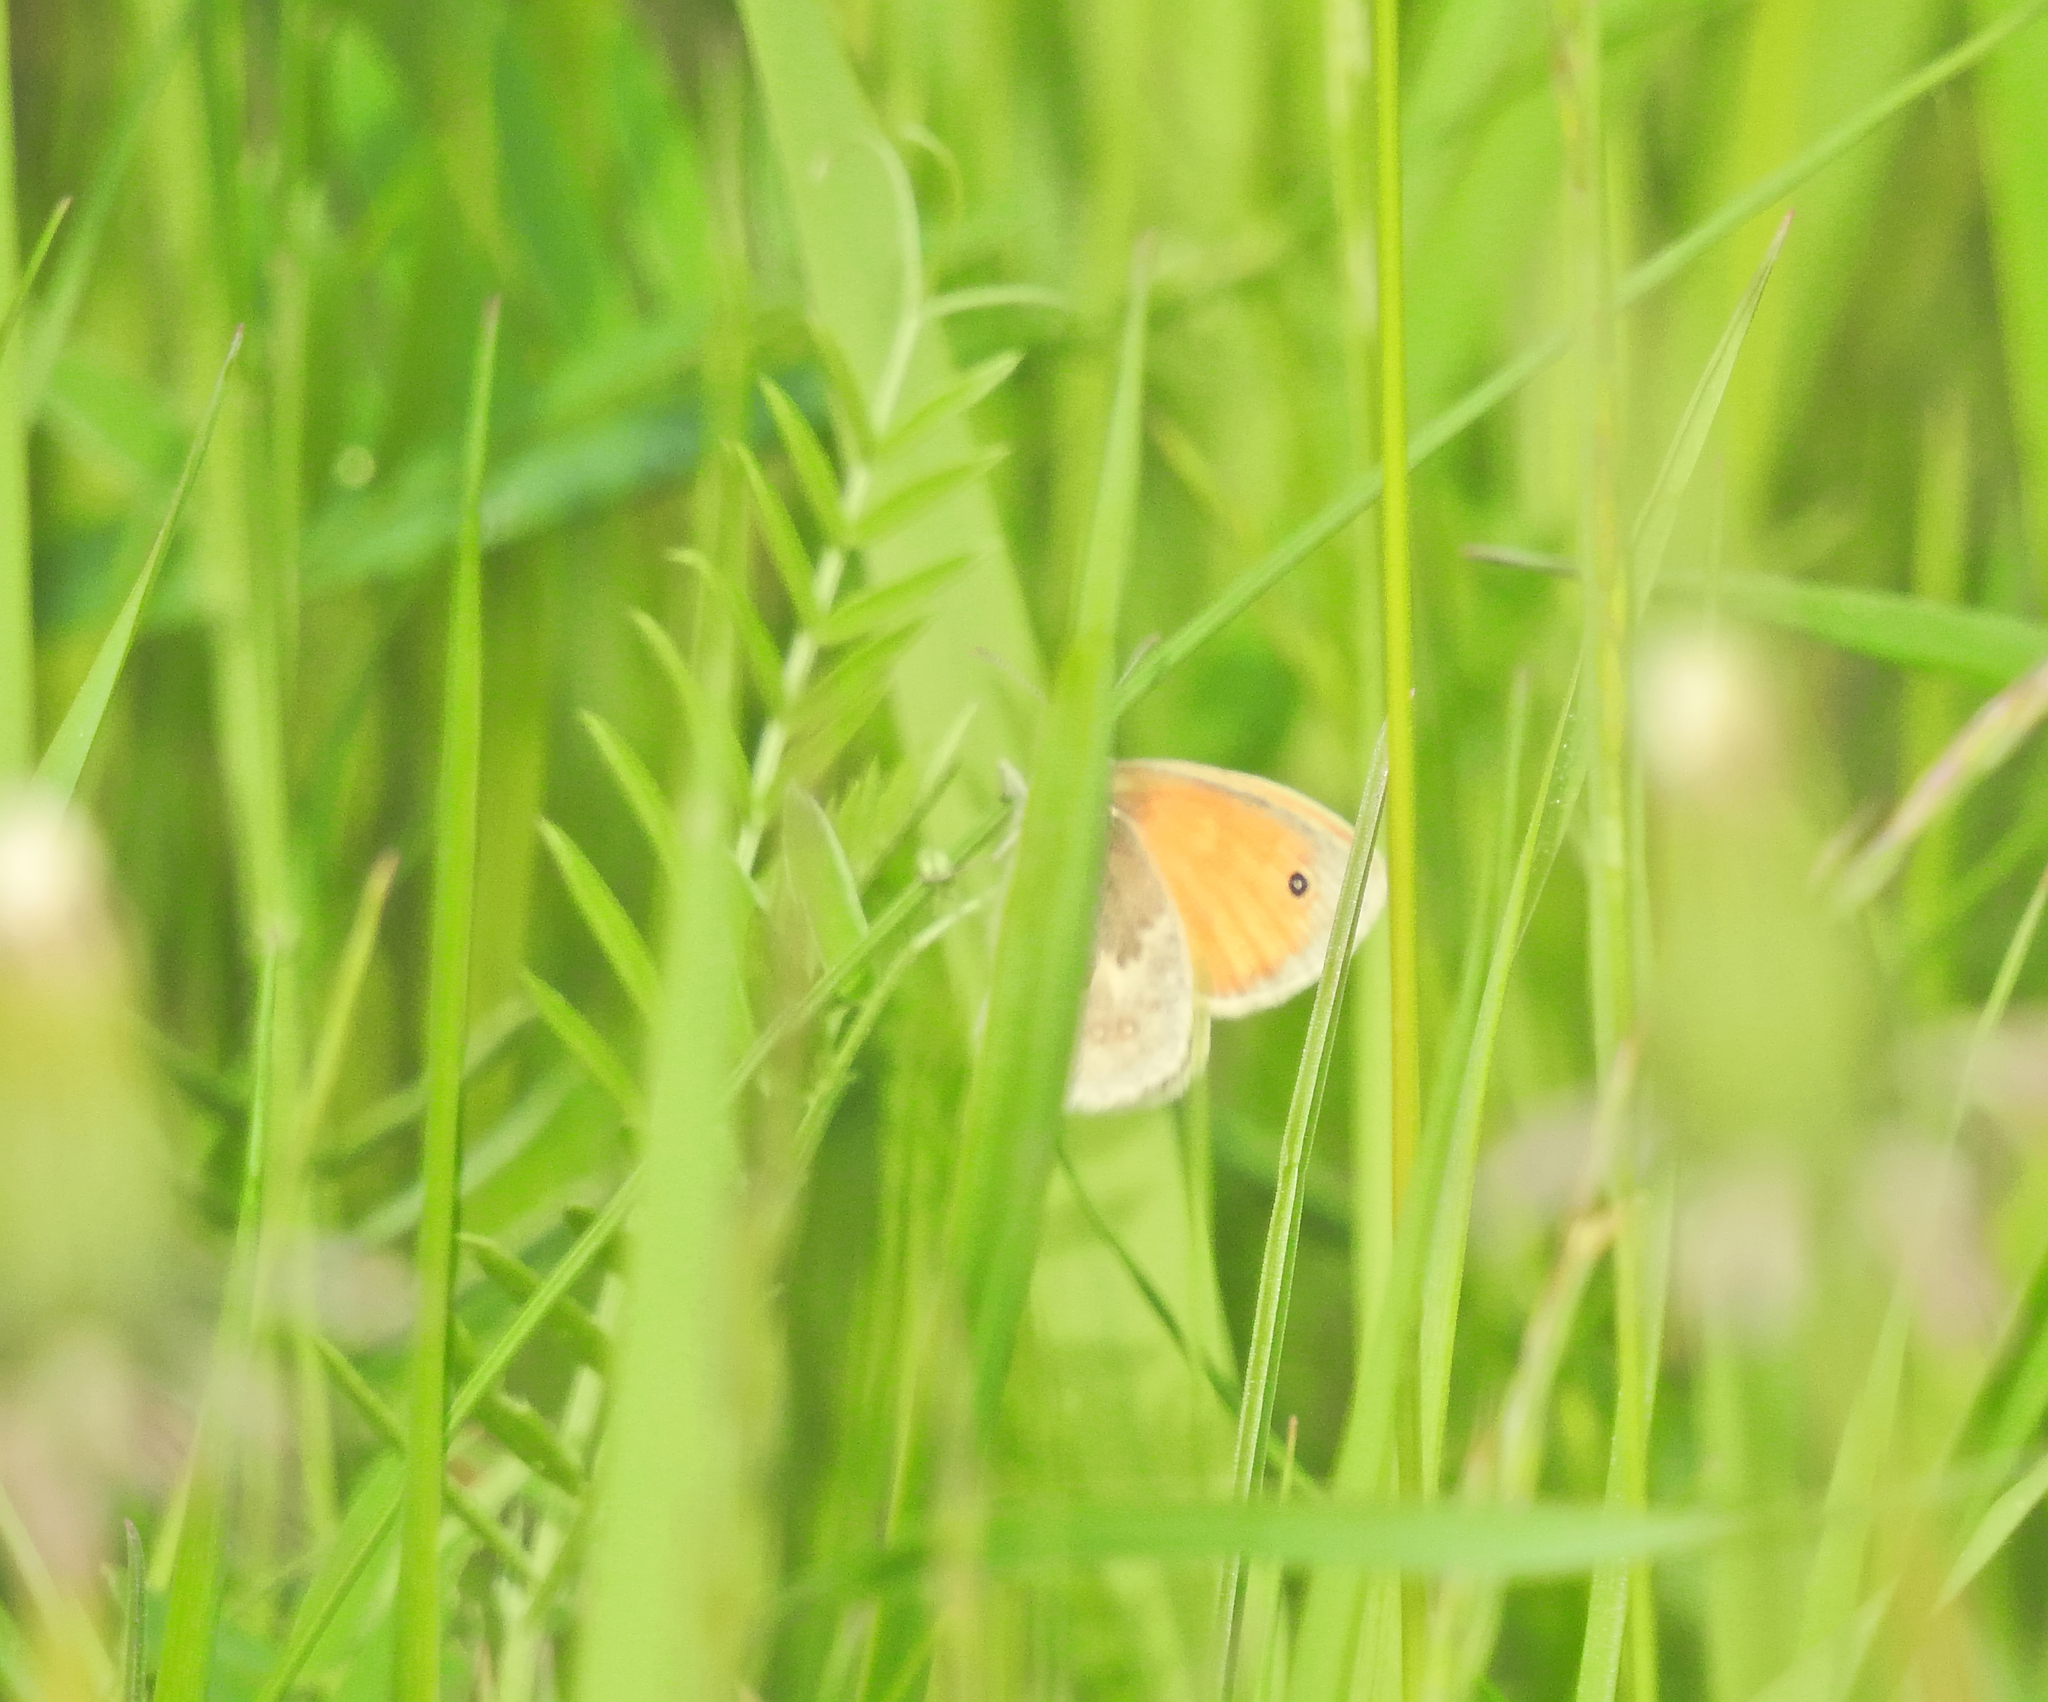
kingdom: Animalia
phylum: Arthropoda
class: Insecta
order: Lepidoptera
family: Nymphalidae
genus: Coenonympha
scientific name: Coenonympha pamphilus
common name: Small heath
